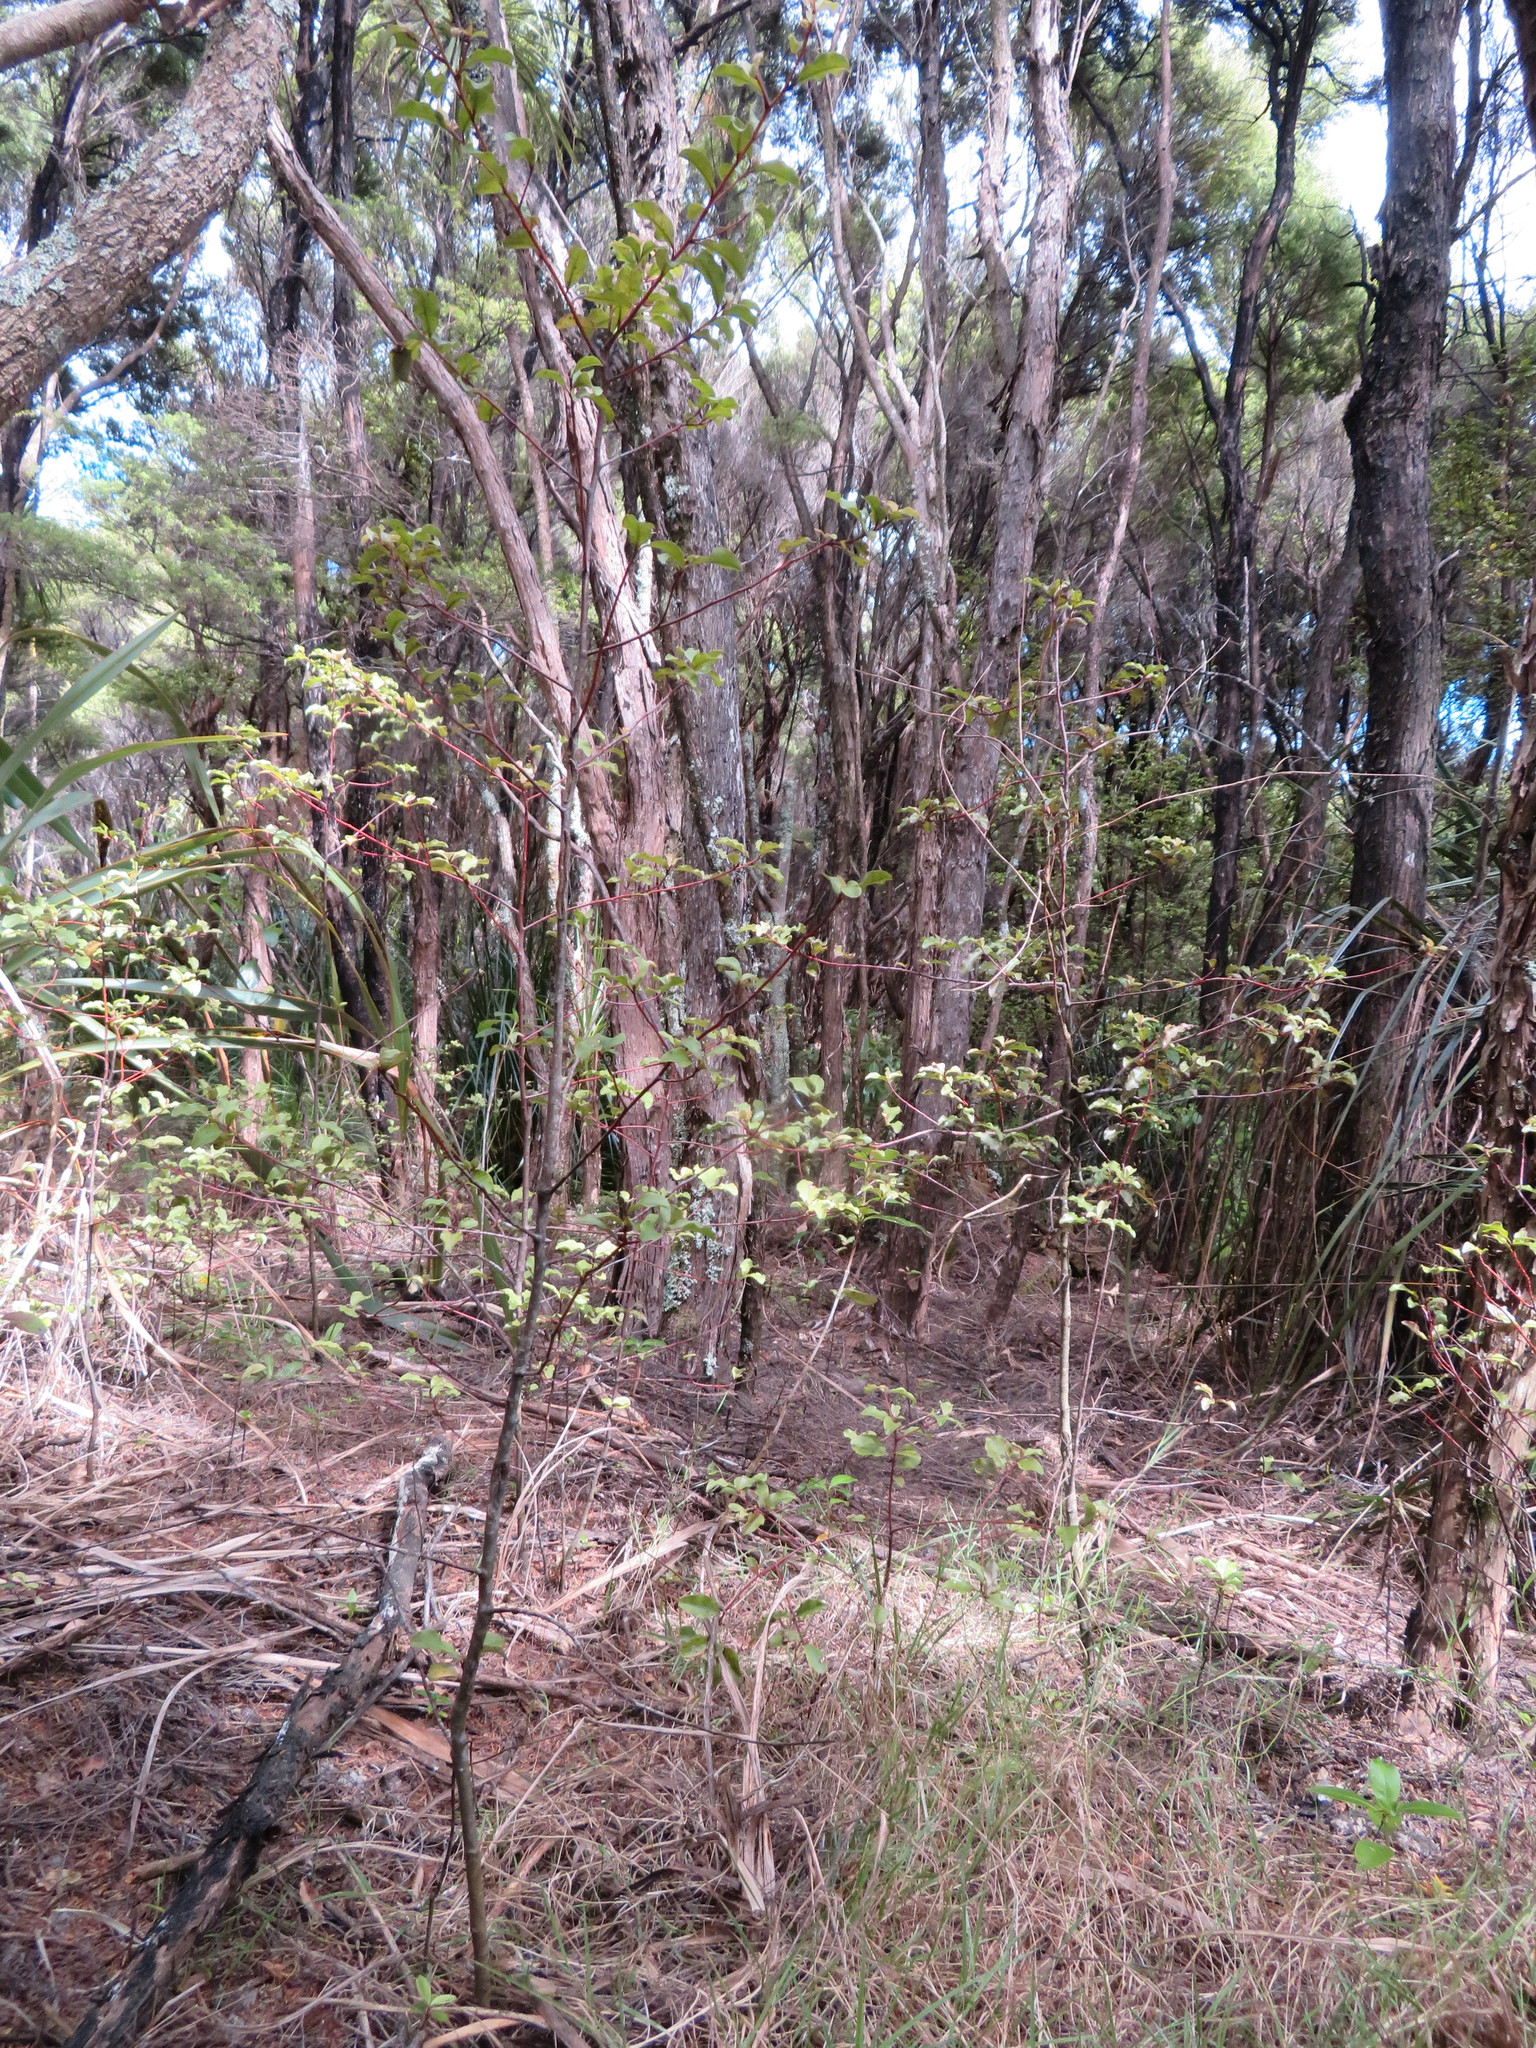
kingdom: Plantae
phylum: Tracheophyta
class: Magnoliopsida
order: Ericales
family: Primulaceae
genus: Myrsine
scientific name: Myrsine australis
